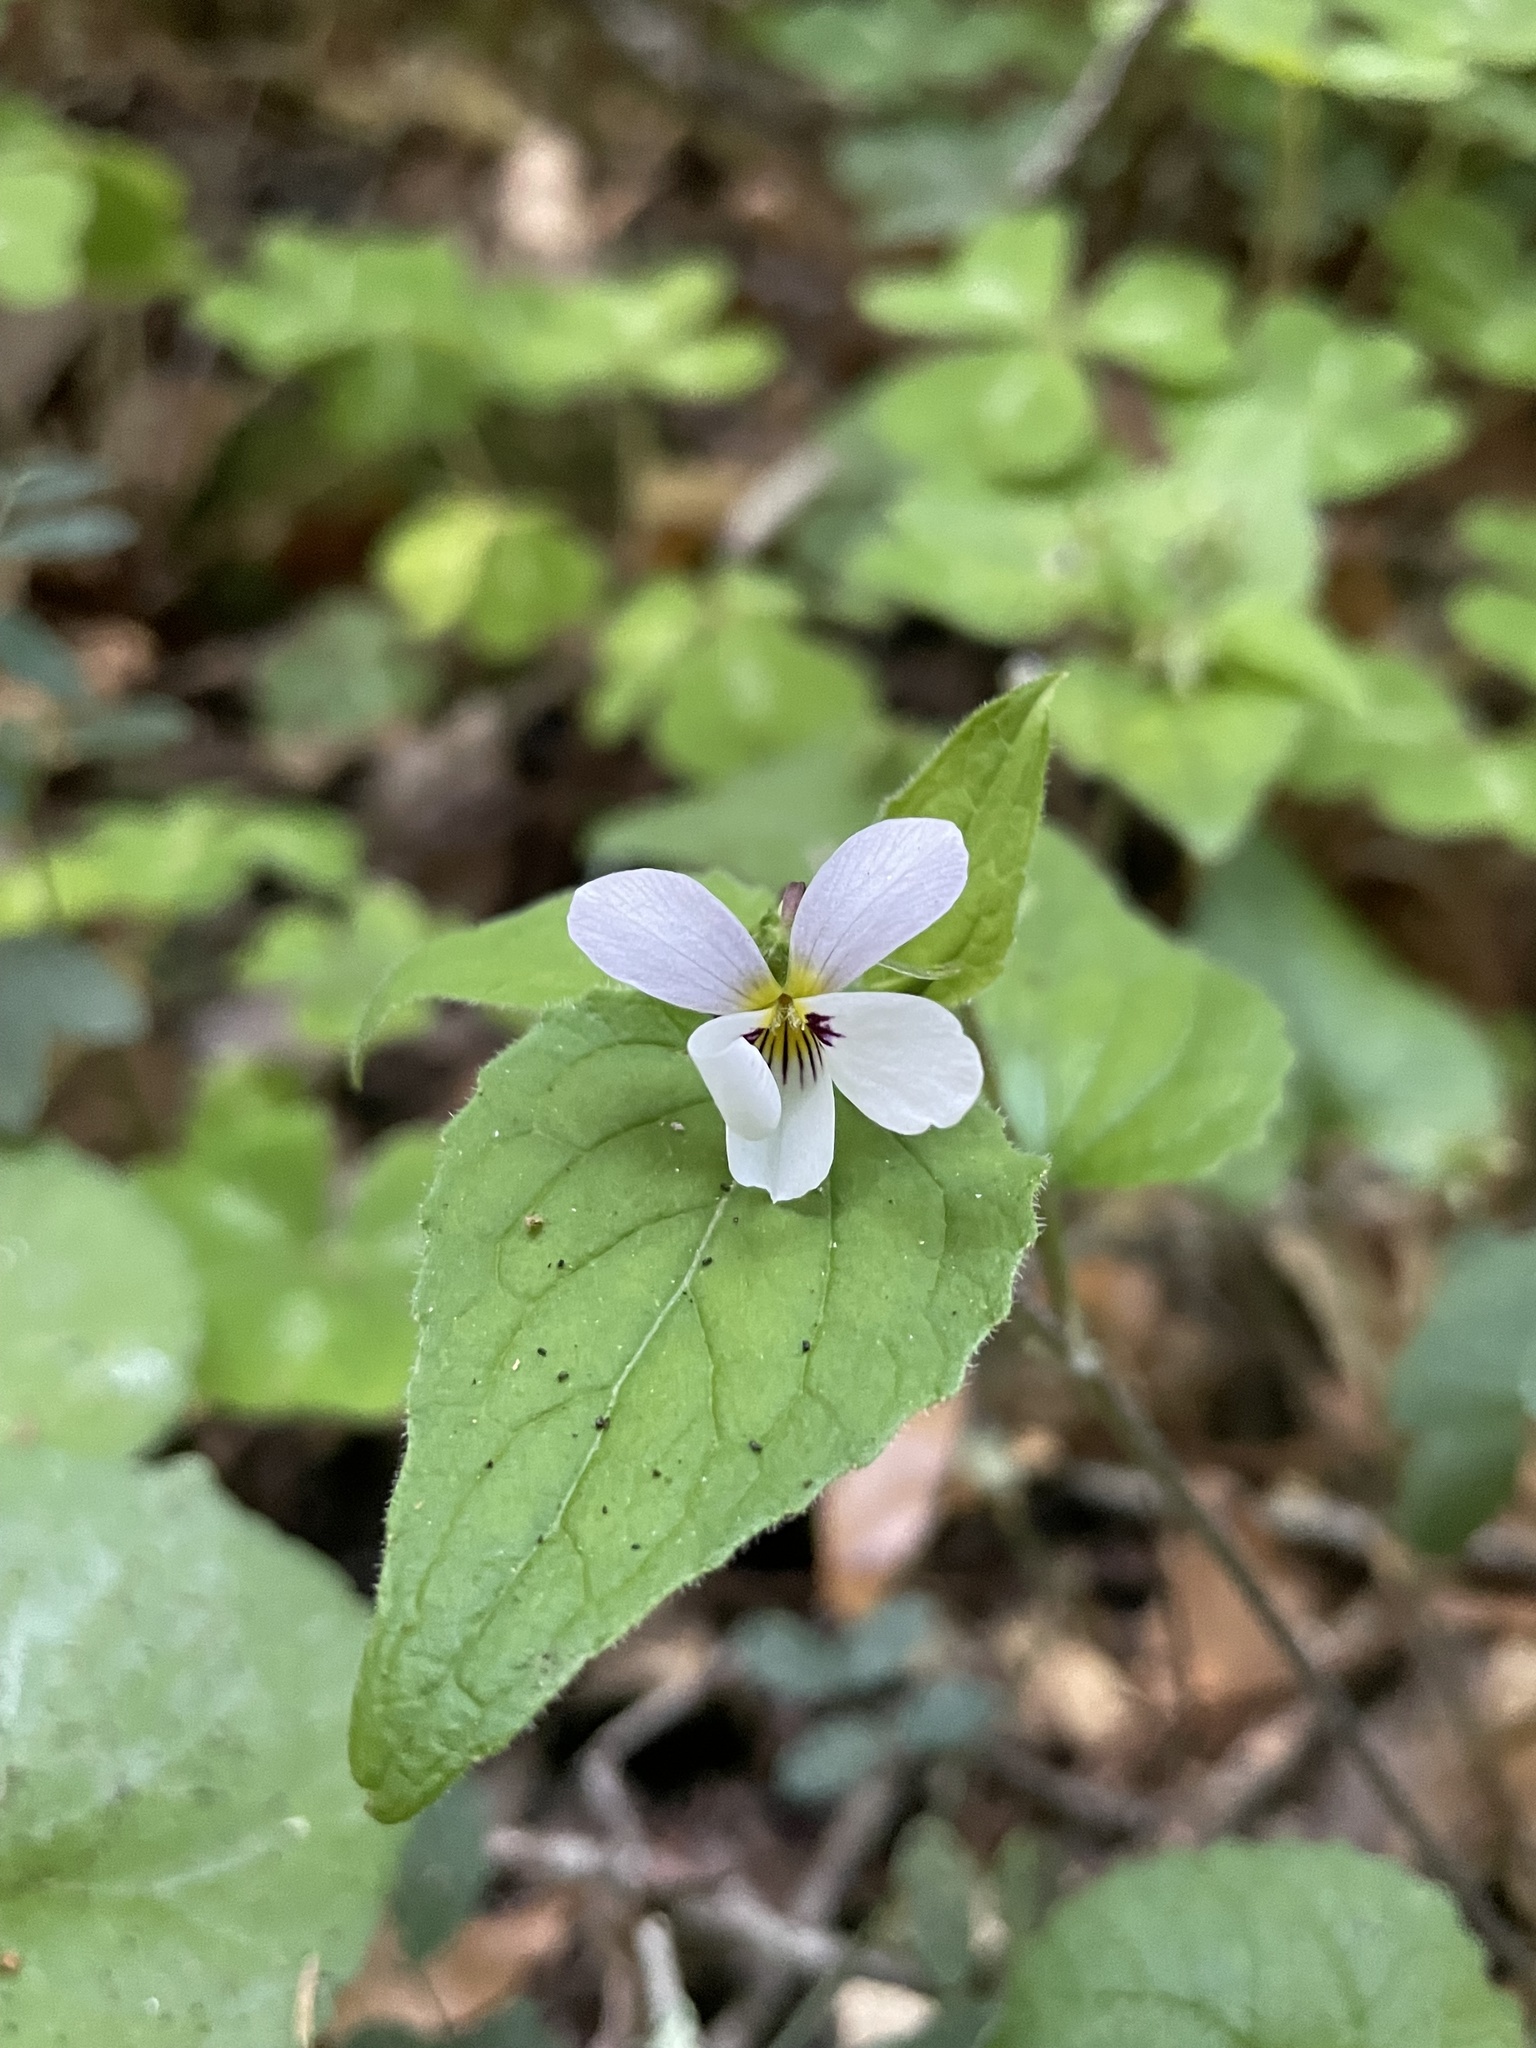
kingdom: Plantae
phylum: Tracheophyta
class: Magnoliopsida
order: Malpighiales
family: Violaceae
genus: Viola
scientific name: Viola ocellata
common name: Western heart's ease
